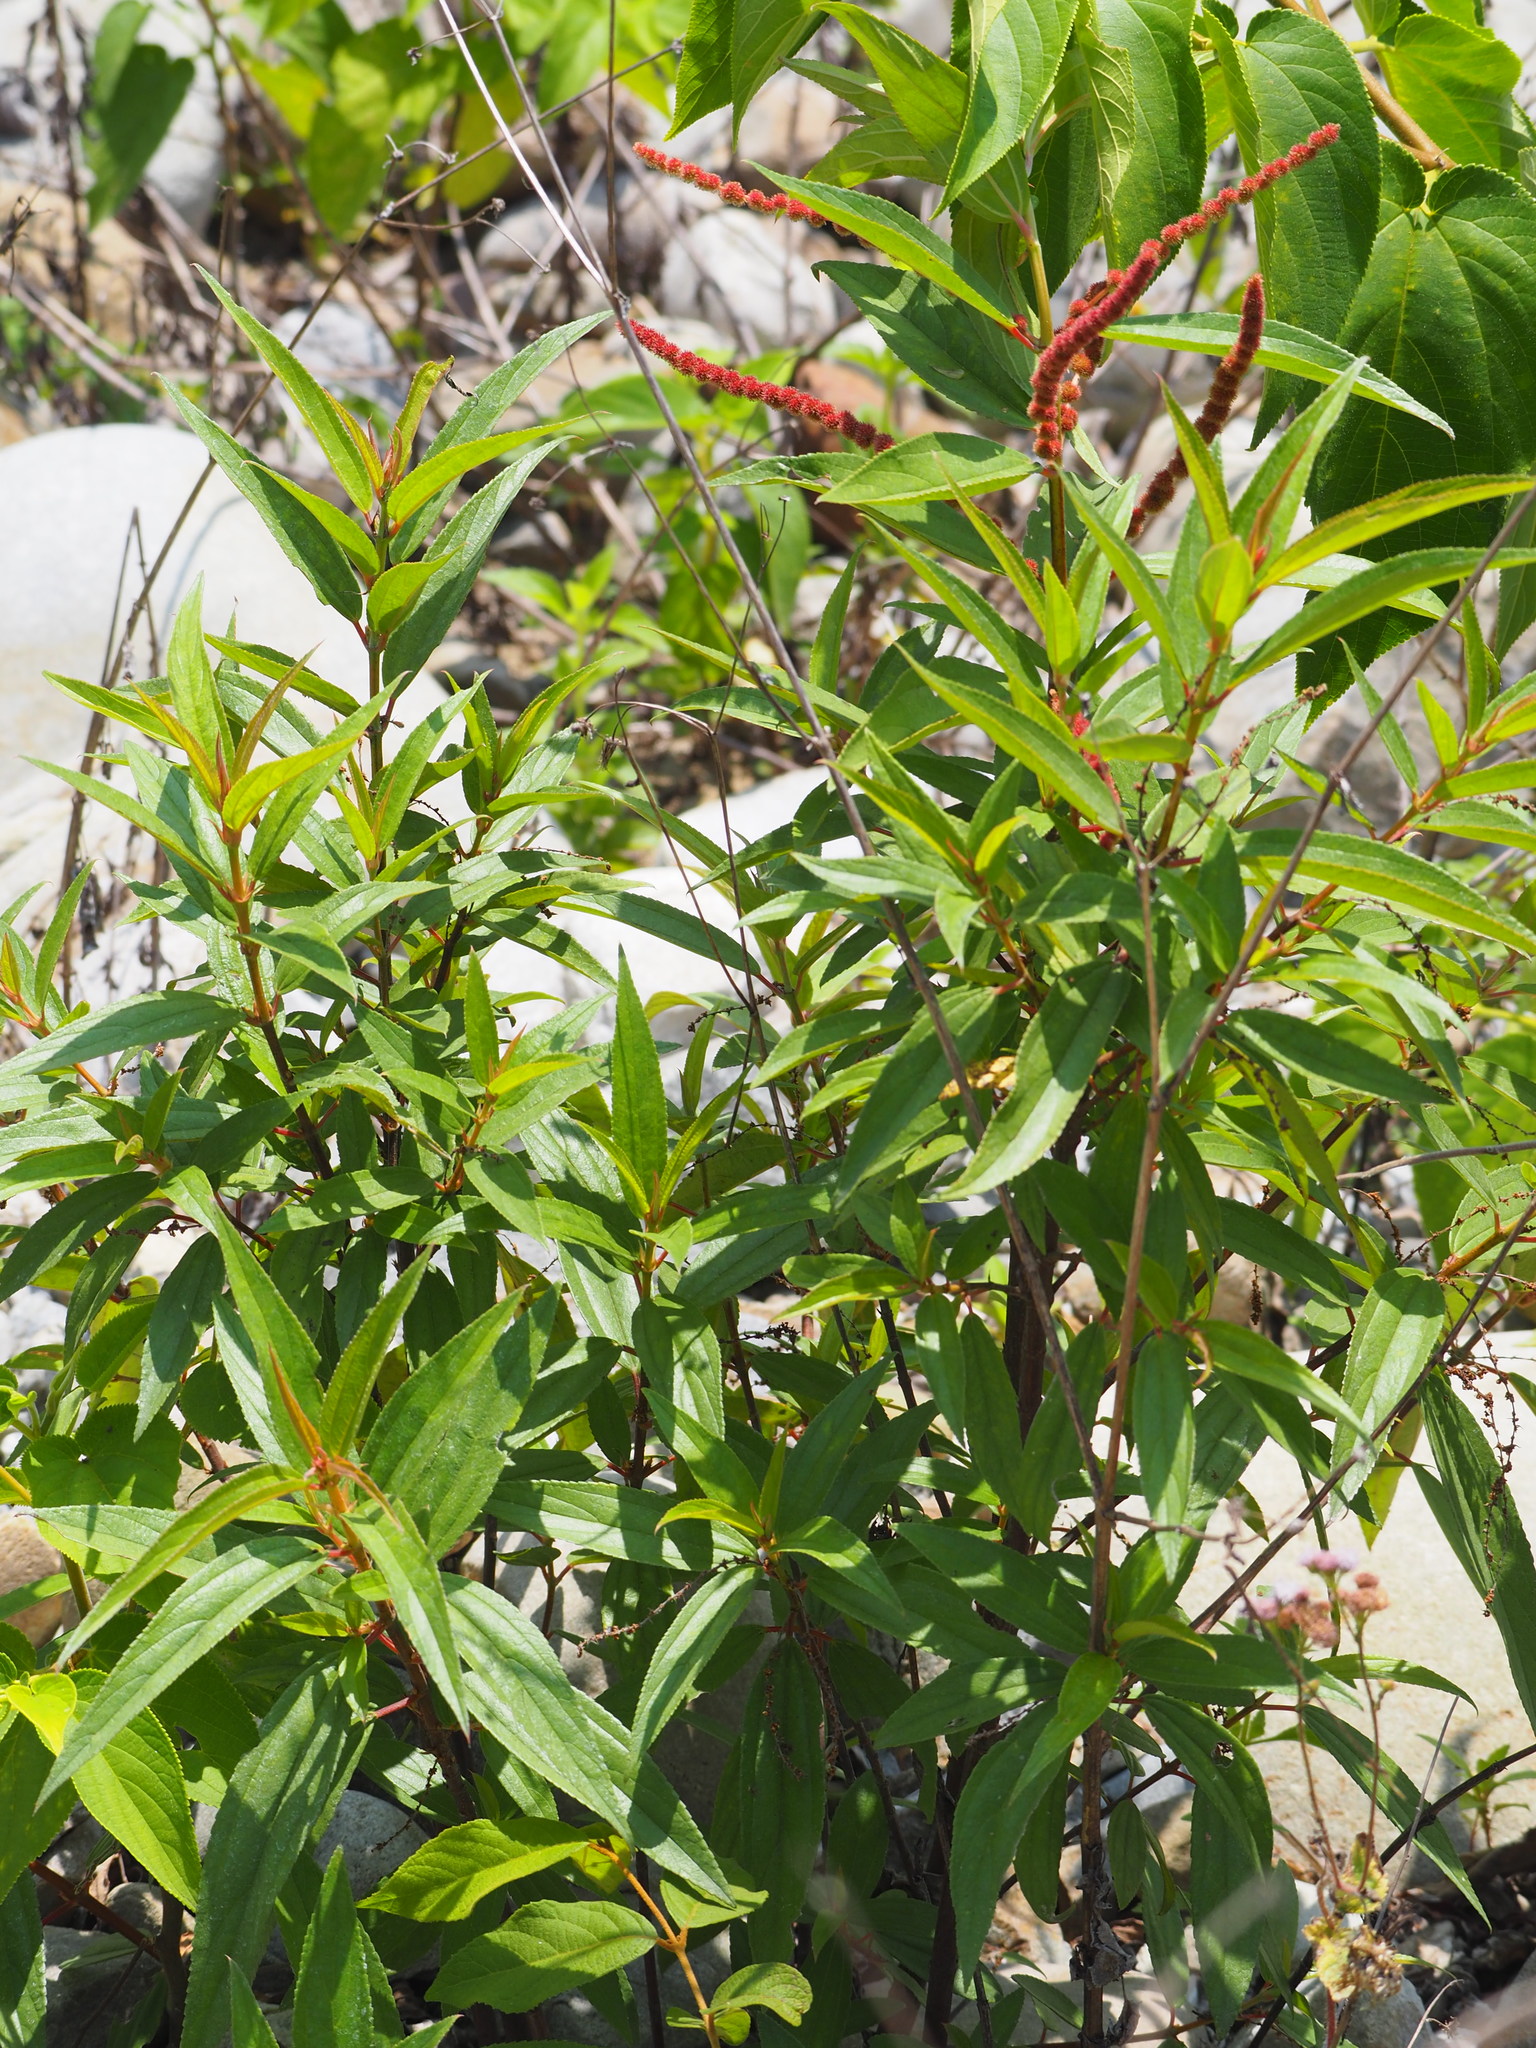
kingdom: Plantae
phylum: Tracheophyta
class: Magnoliopsida
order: Rosales
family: Urticaceae
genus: Boehmeria
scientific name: Boehmeria densiflora
